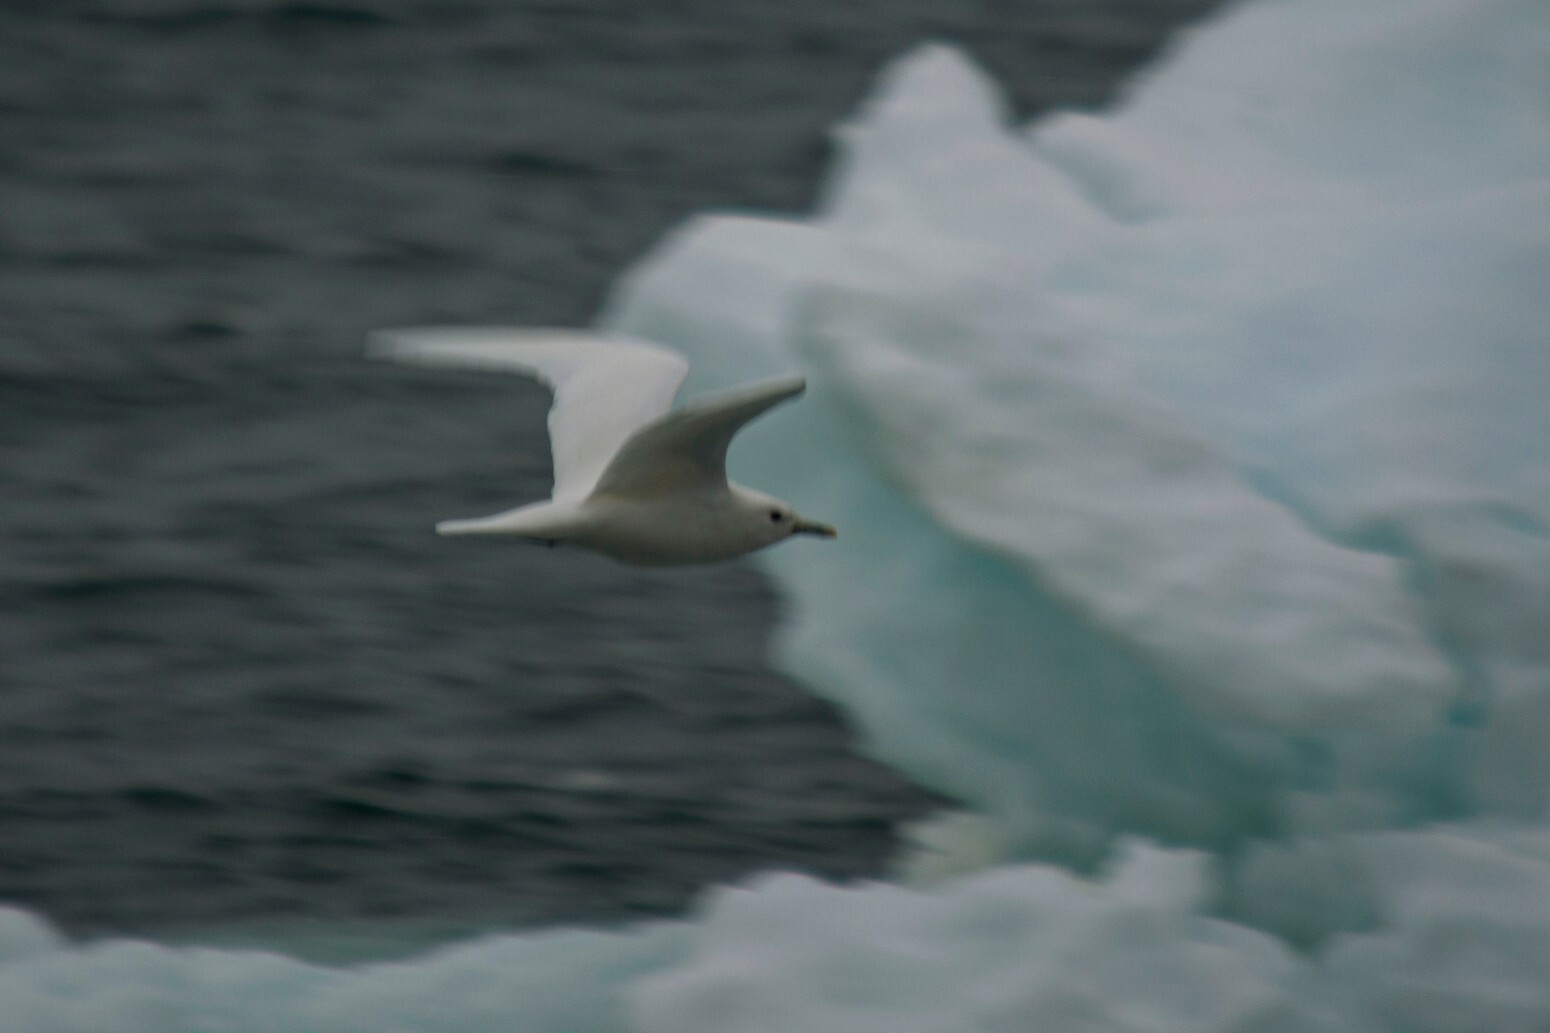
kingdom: Animalia
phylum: Chordata
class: Aves
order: Charadriiformes
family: Laridae
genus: Pagophila
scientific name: Pagophila eburnea
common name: Ivory gull
